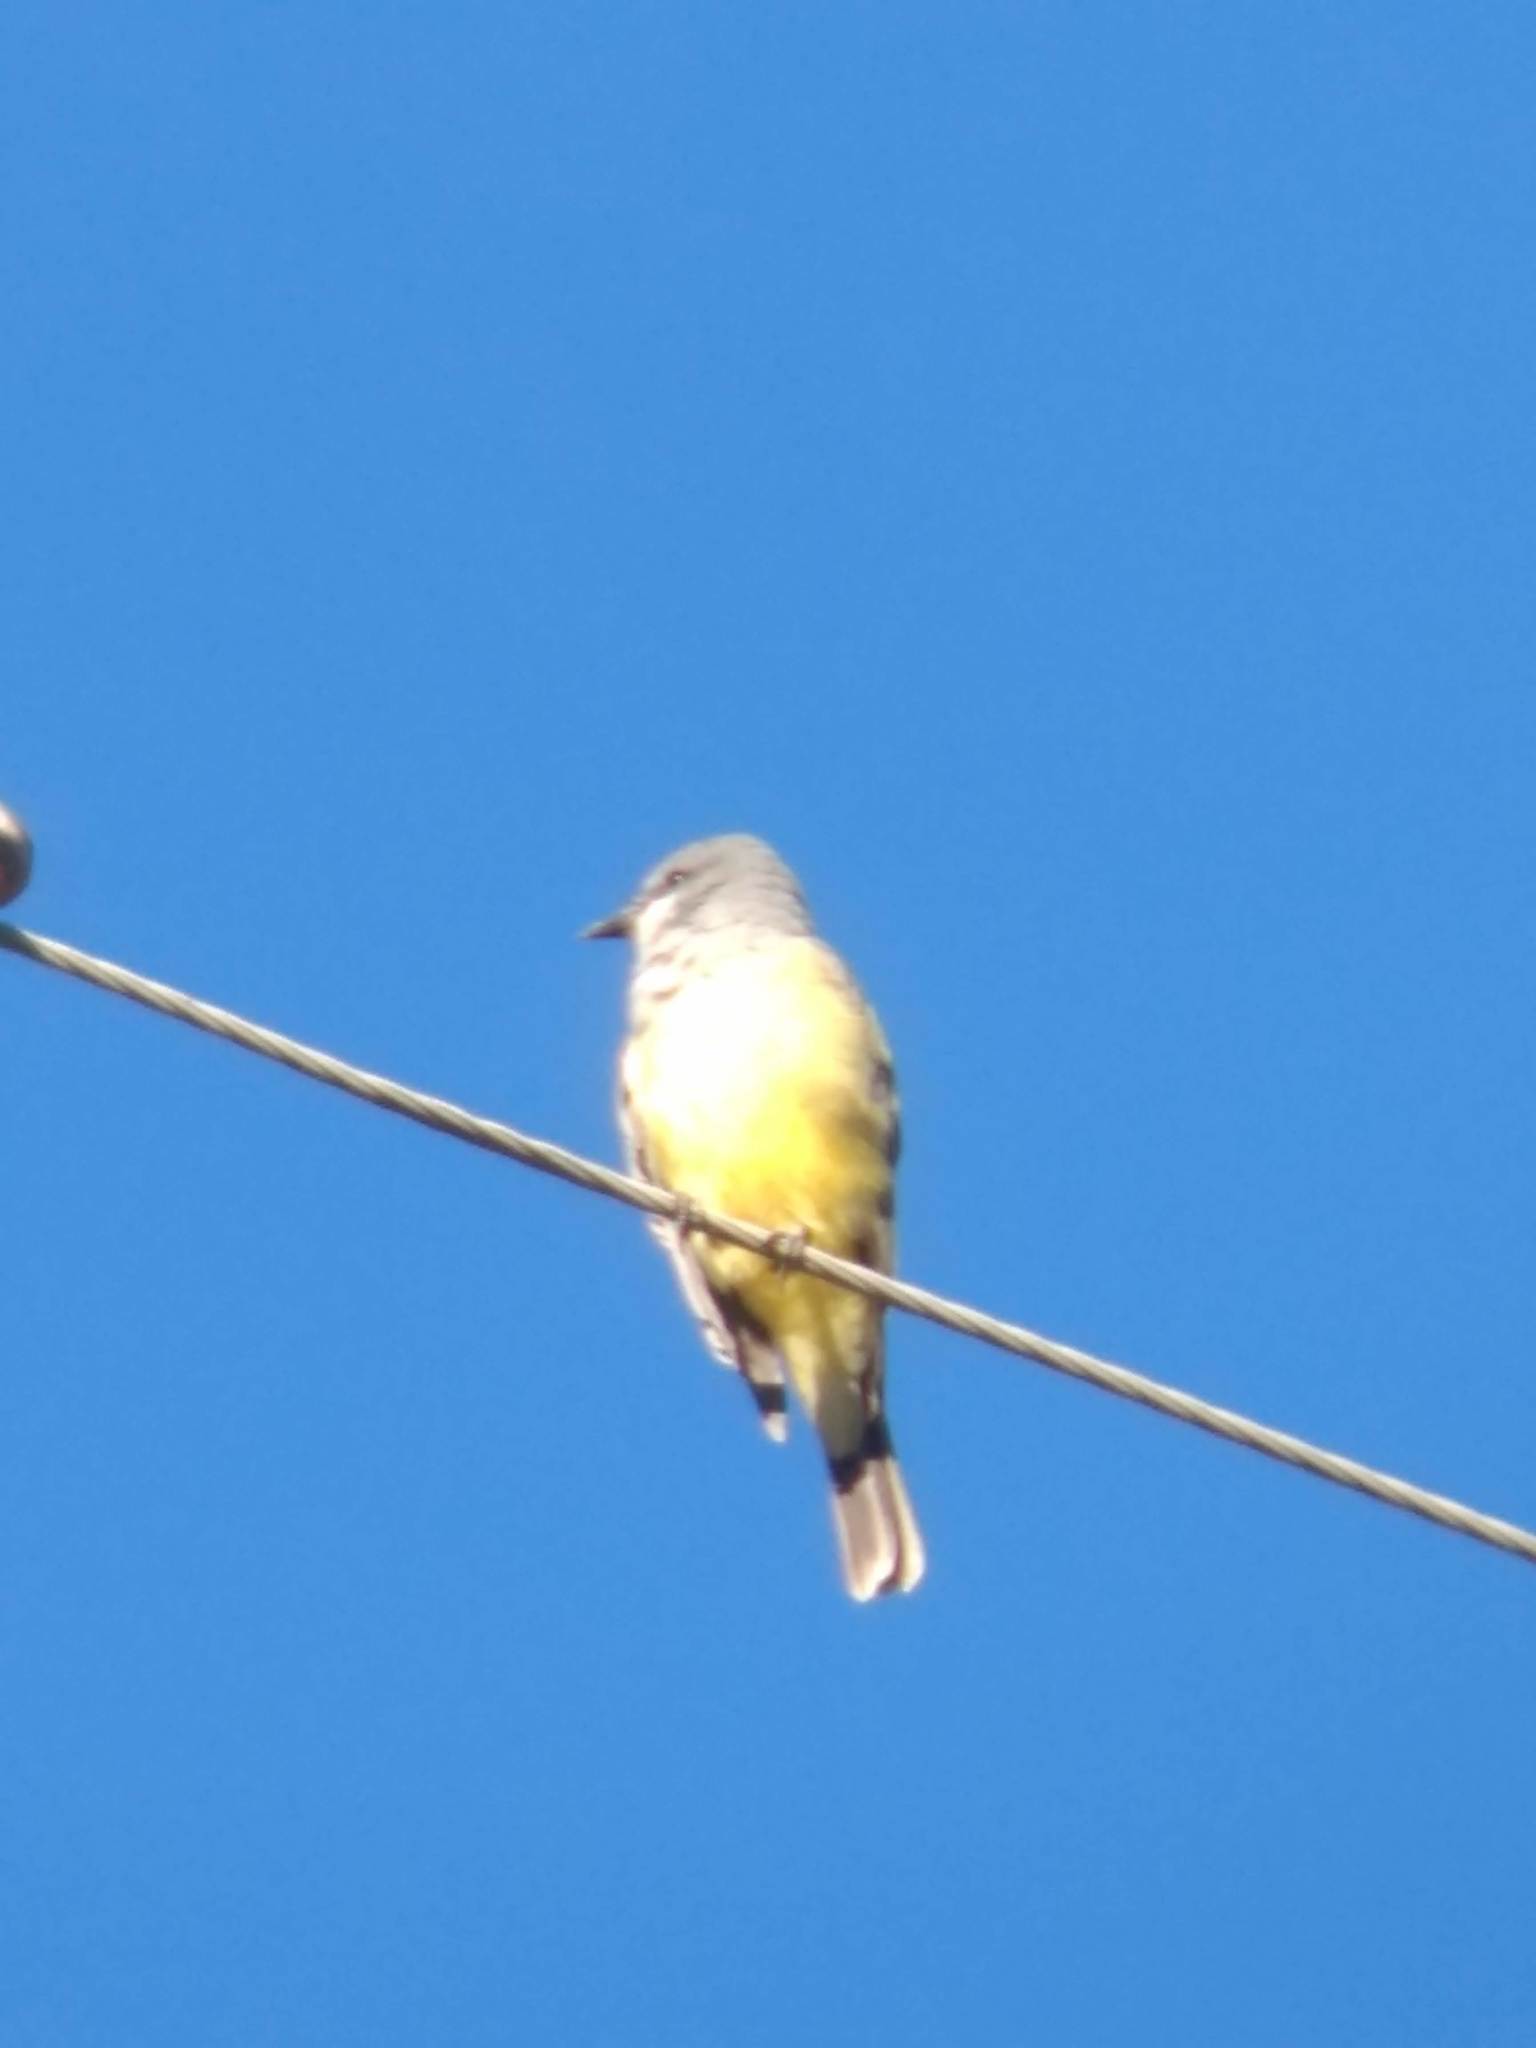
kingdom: Animalia
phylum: Chordata
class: Aves
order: Passeriformes
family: Tyrannidae
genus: Tyrannus
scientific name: Tyrannus vociferans
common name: Cassin's kingbird
